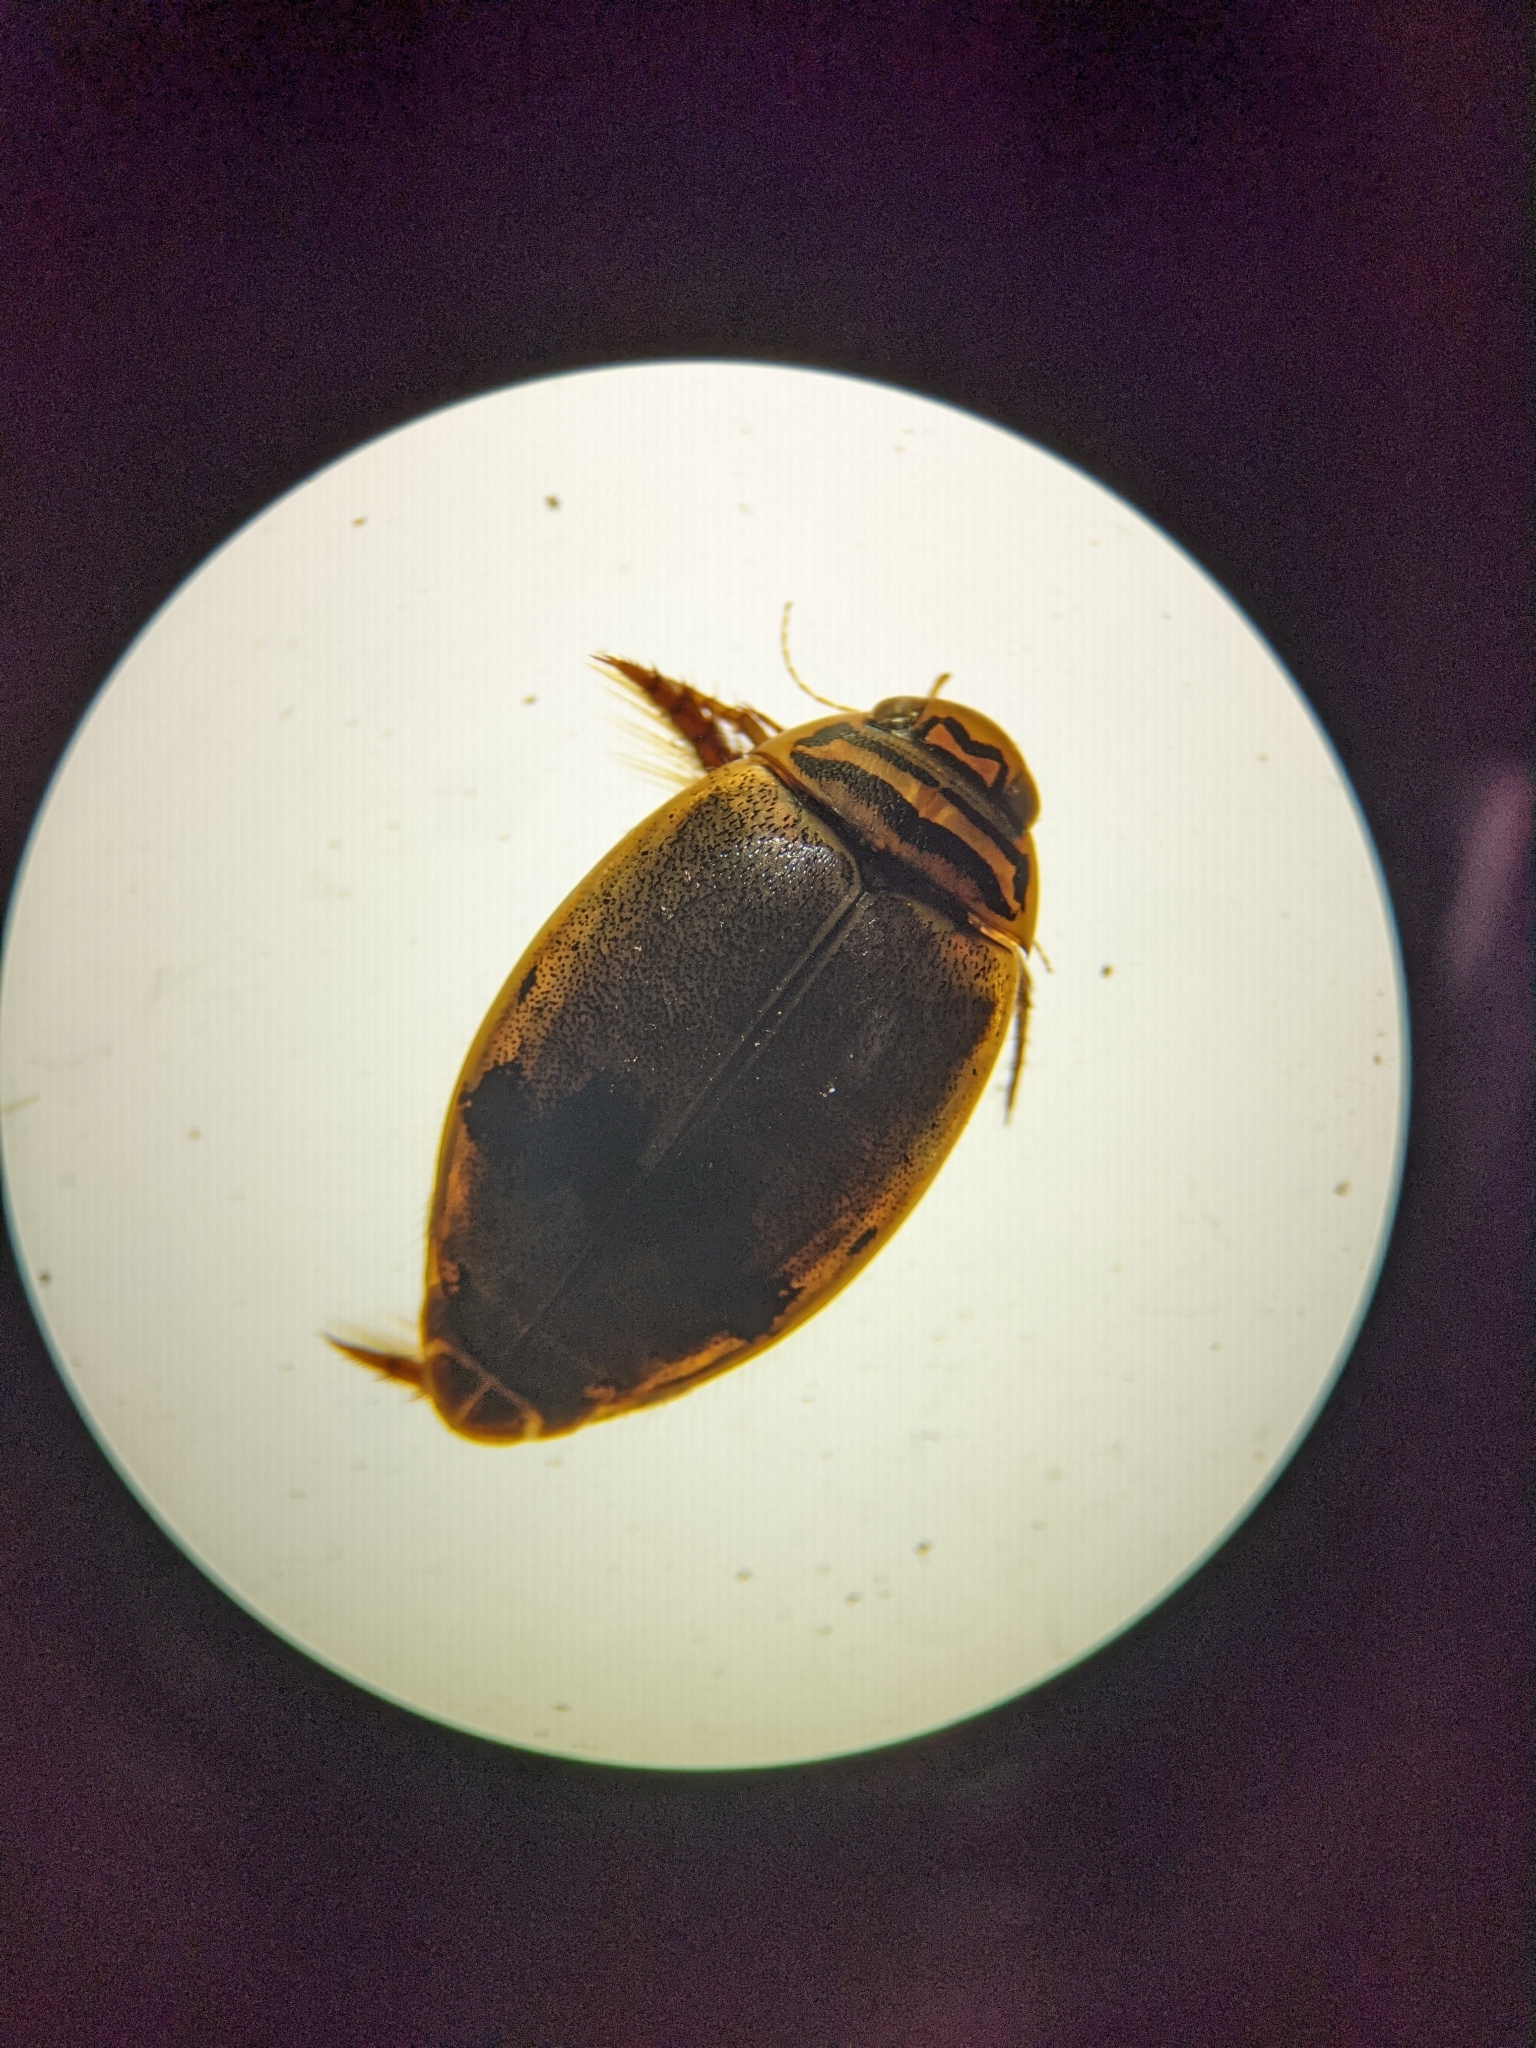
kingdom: Animalia
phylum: Arthropoda
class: Insecta
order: Coleoptera
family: Dytiscidae
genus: Thermonectus
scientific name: Thermonectus nigrofasciatus
